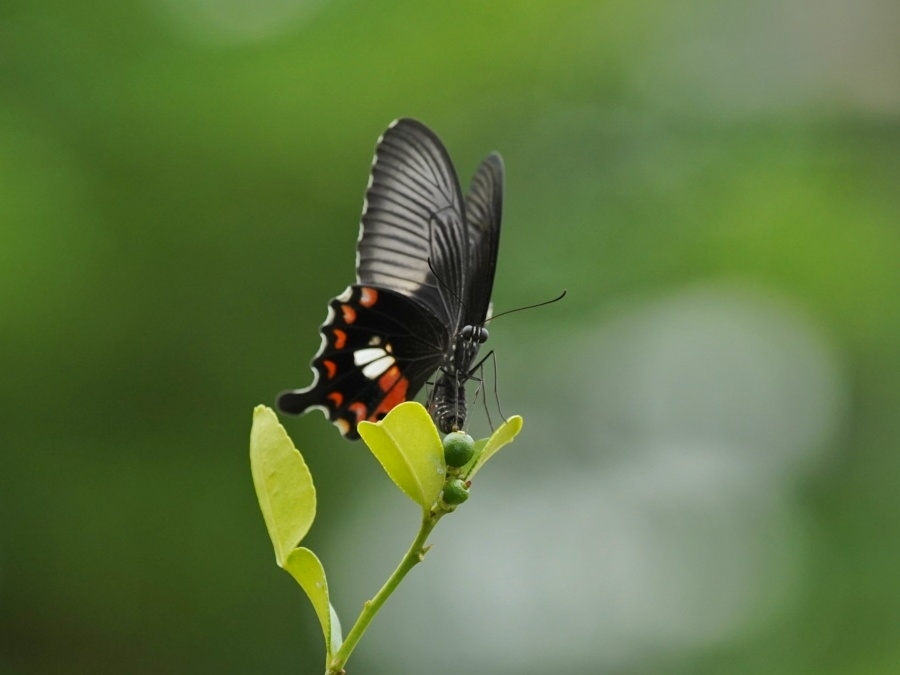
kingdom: Animalia
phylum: Arthropoda
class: Insecta
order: Lepidoptera
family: Papilionidae
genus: Papilio
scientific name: Papilio polytes
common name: Common mormon
